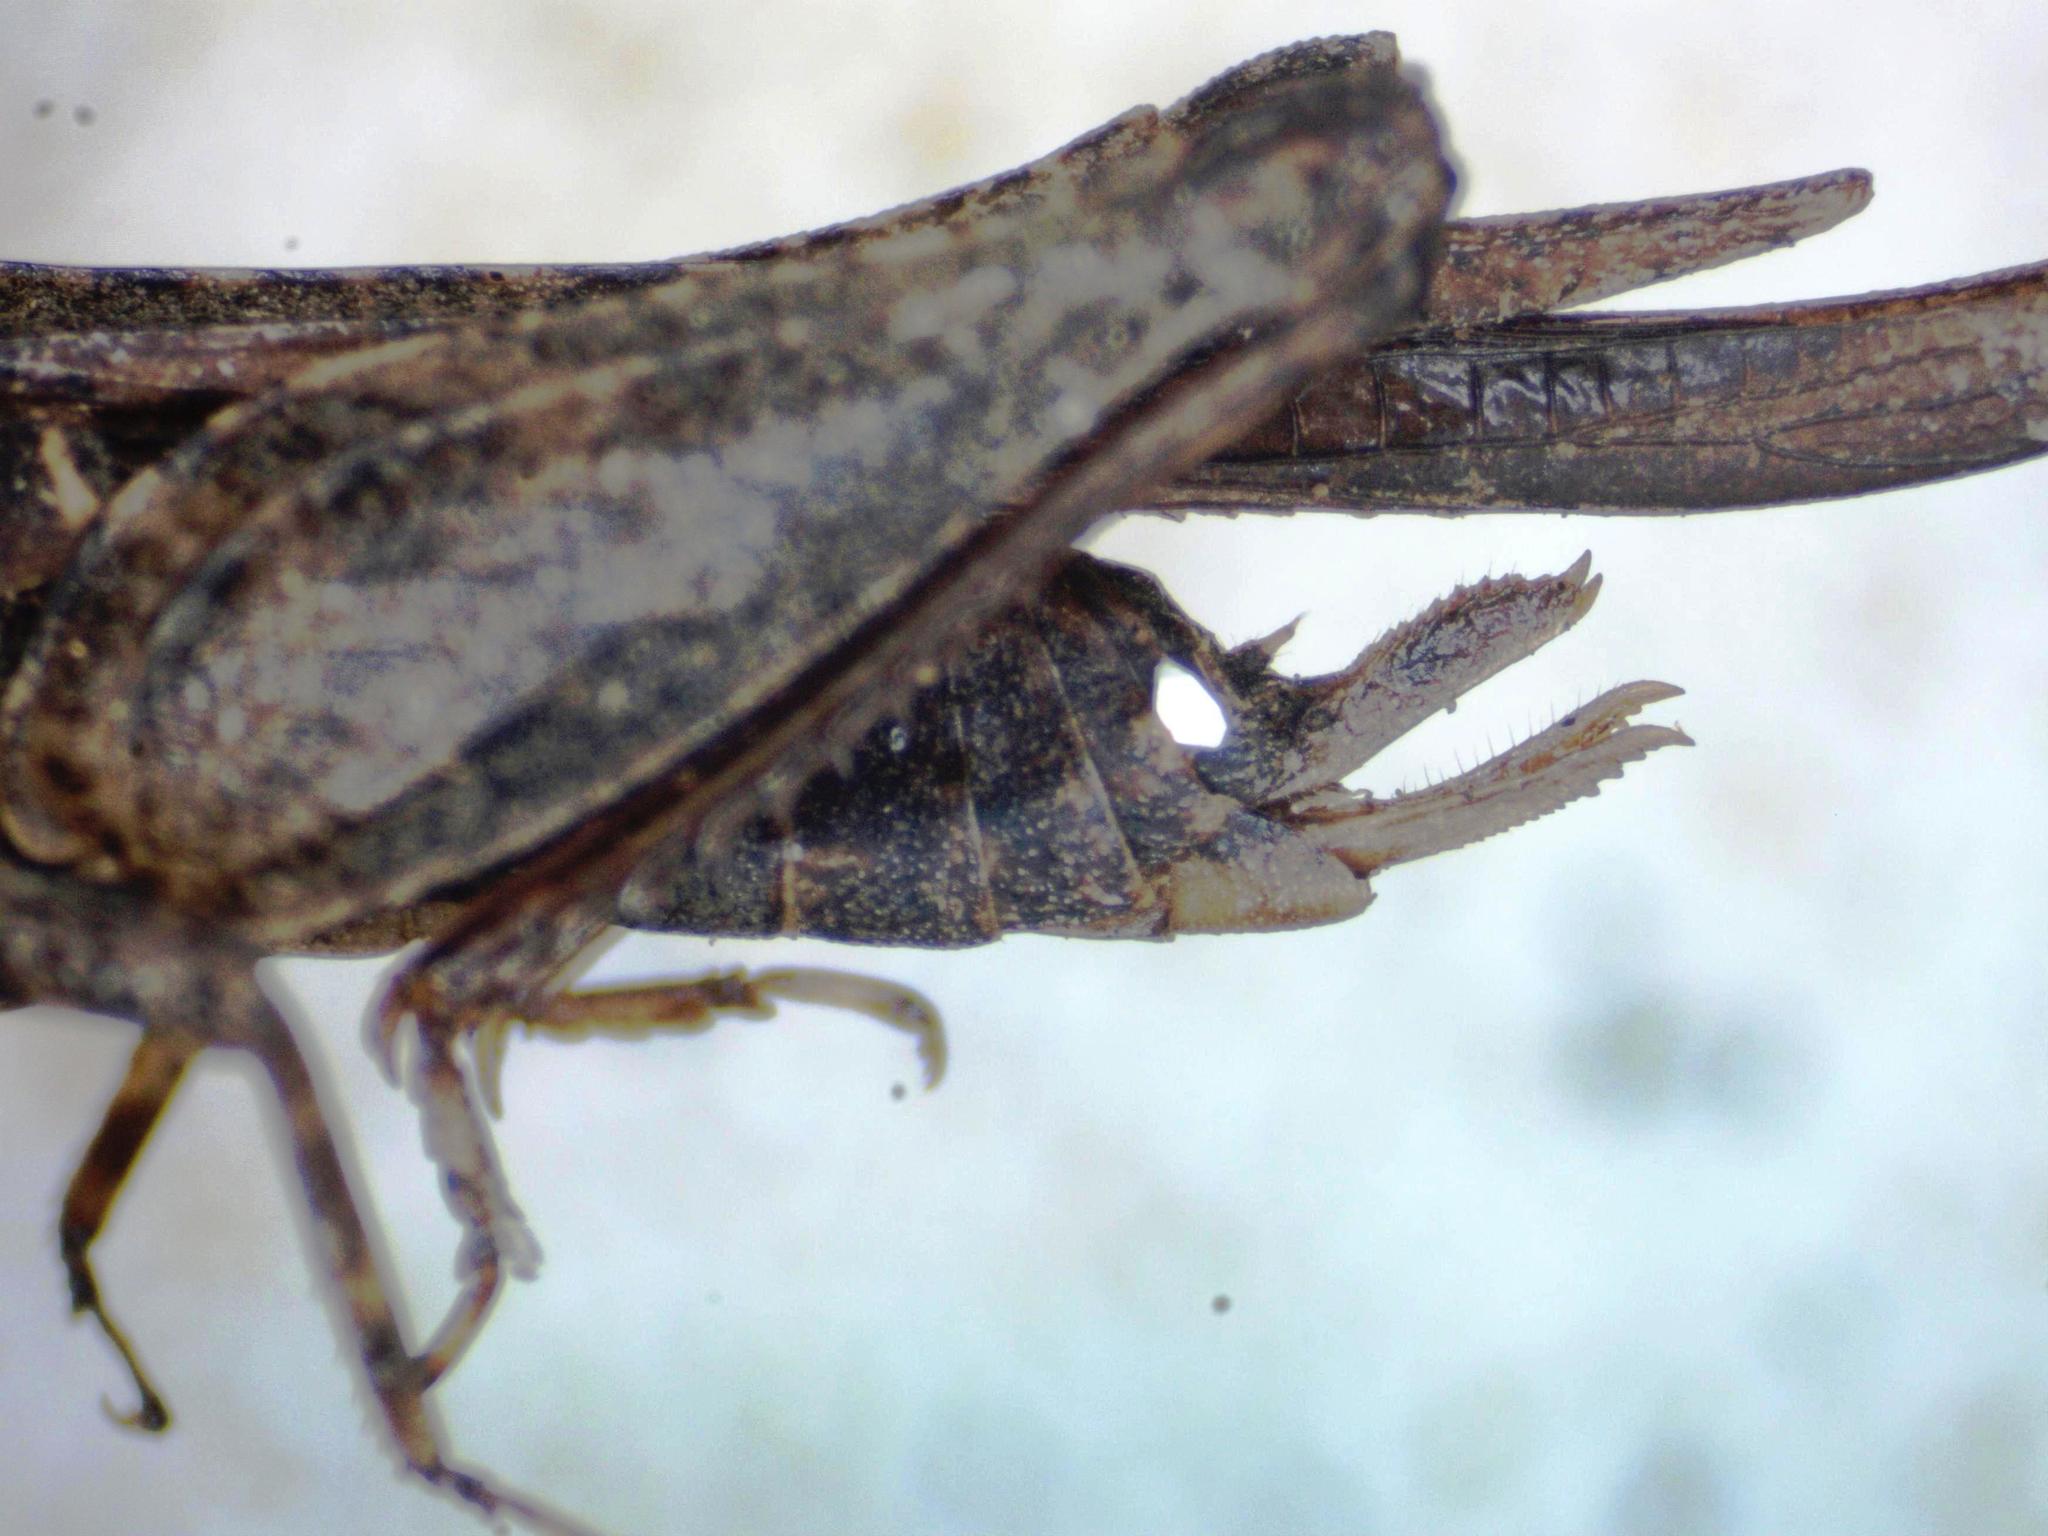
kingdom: Animalia
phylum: Arthropoda
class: Insecta
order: Orthoptera
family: Tetrigidae
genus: Tettigidea
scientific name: Tettigidea laterale
